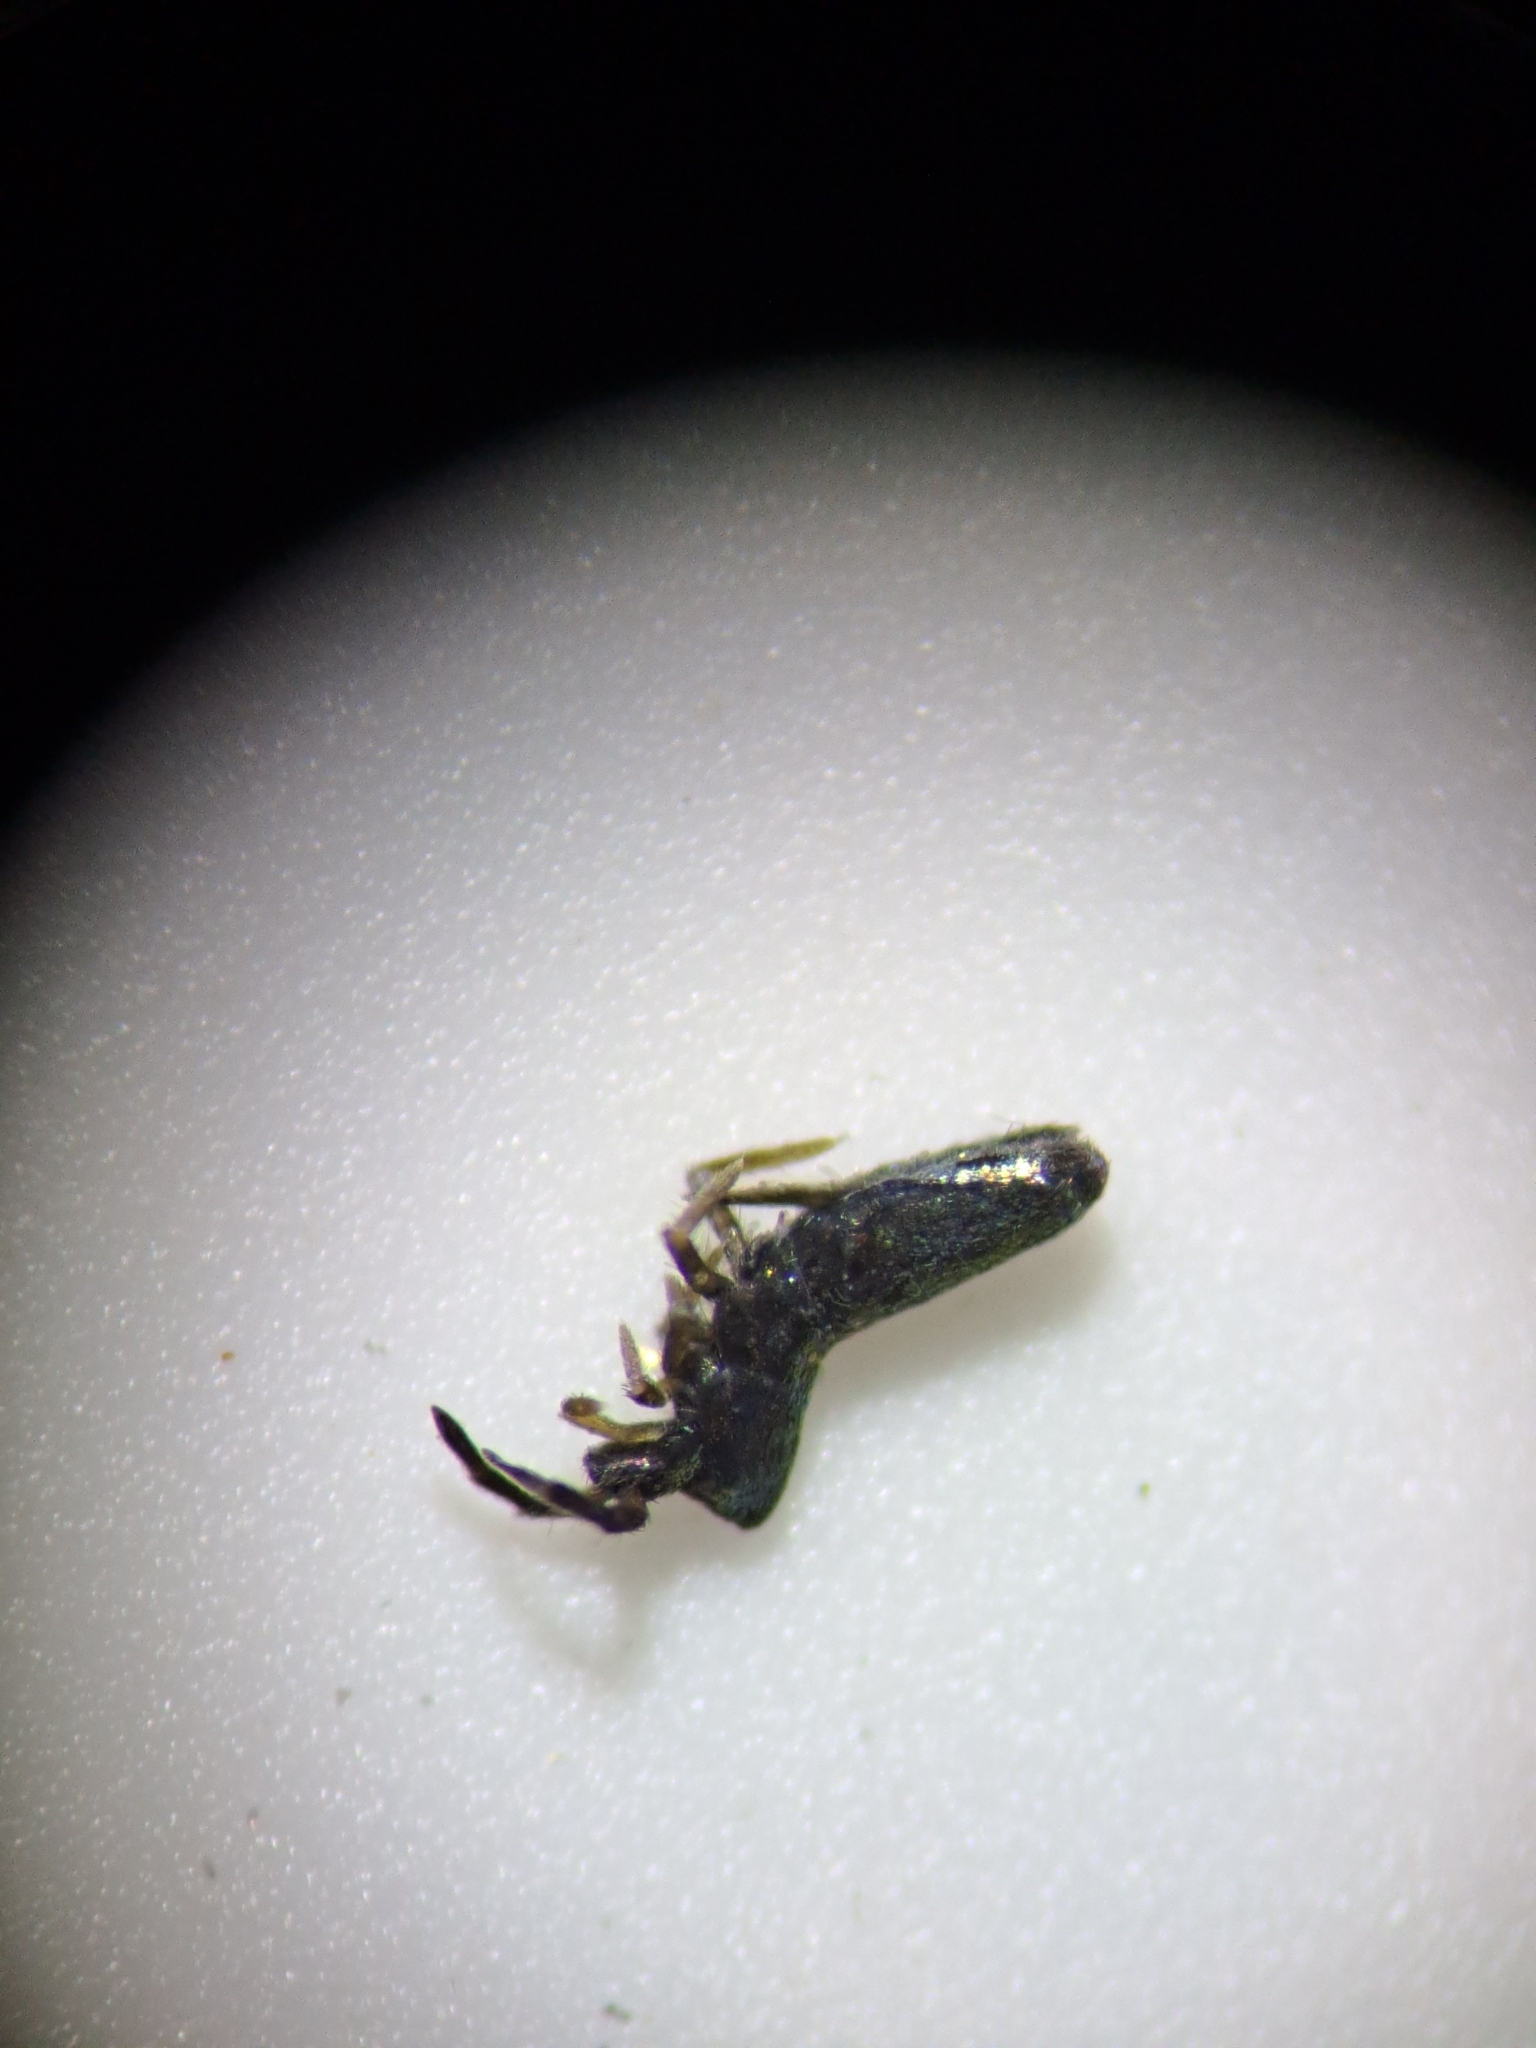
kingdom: Animalia
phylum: Arthropoda
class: Collembola
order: Entomobryomorpha
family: Entomobryidae
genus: Lepidocyrtus
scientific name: Lepidocyrtus paradoxus
